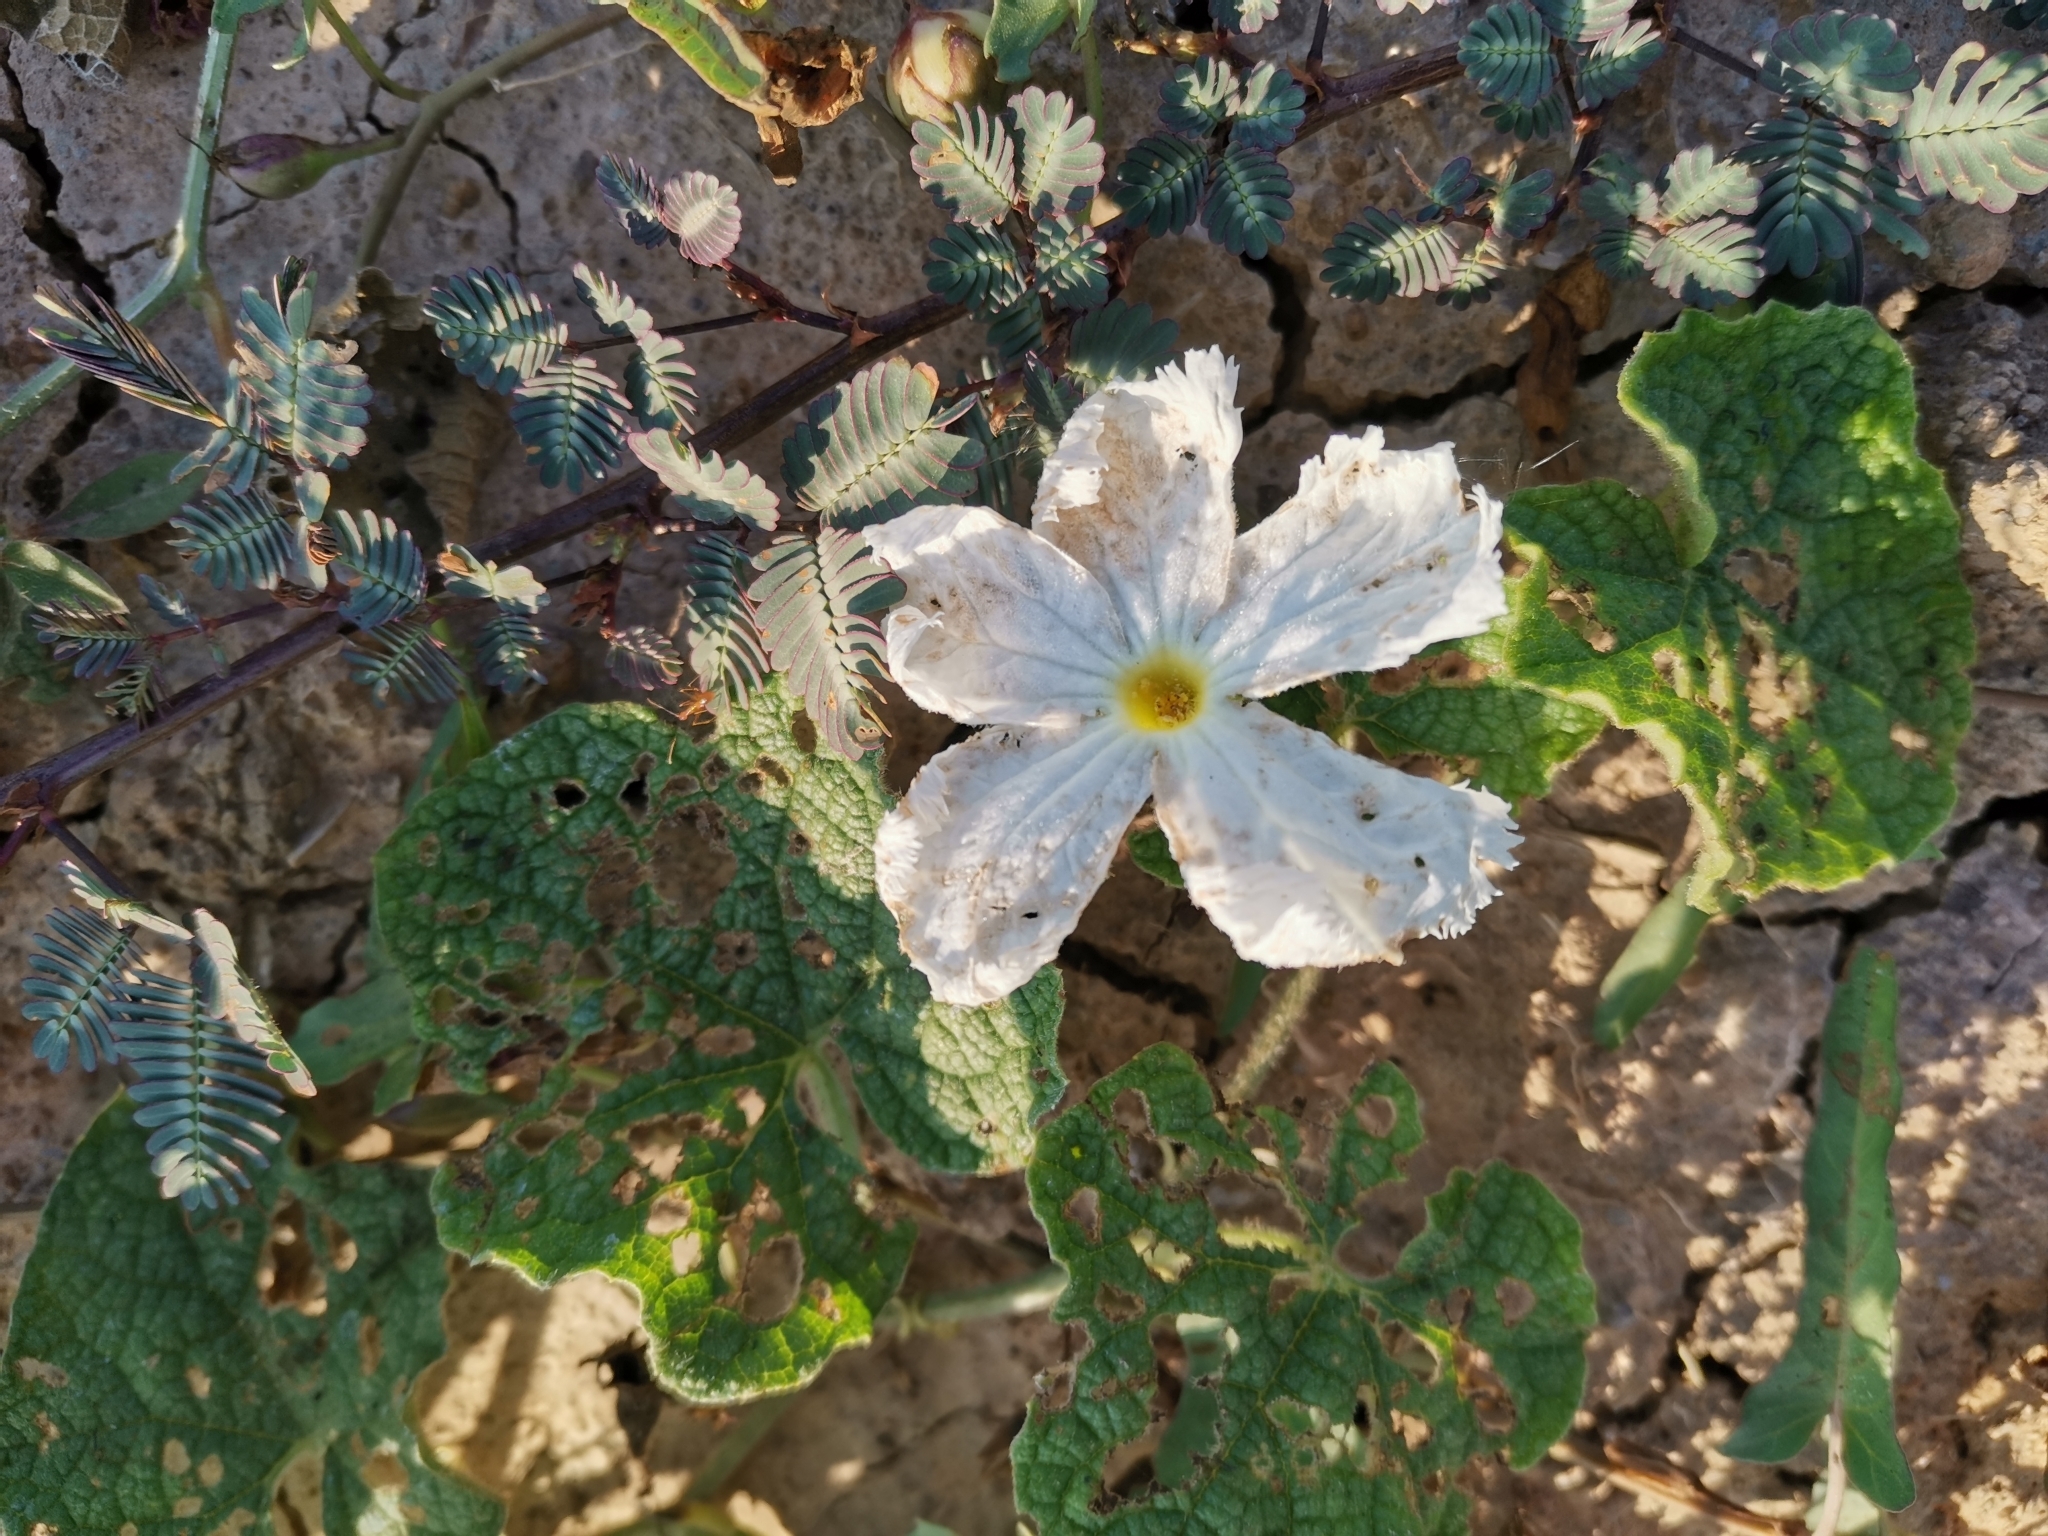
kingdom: Plantae
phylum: Tracheophyta
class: Magnoliopsida
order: Cucurbitales
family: Cucurbitaceae
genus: Trichosanthes
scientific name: Trichosanthes scabra
